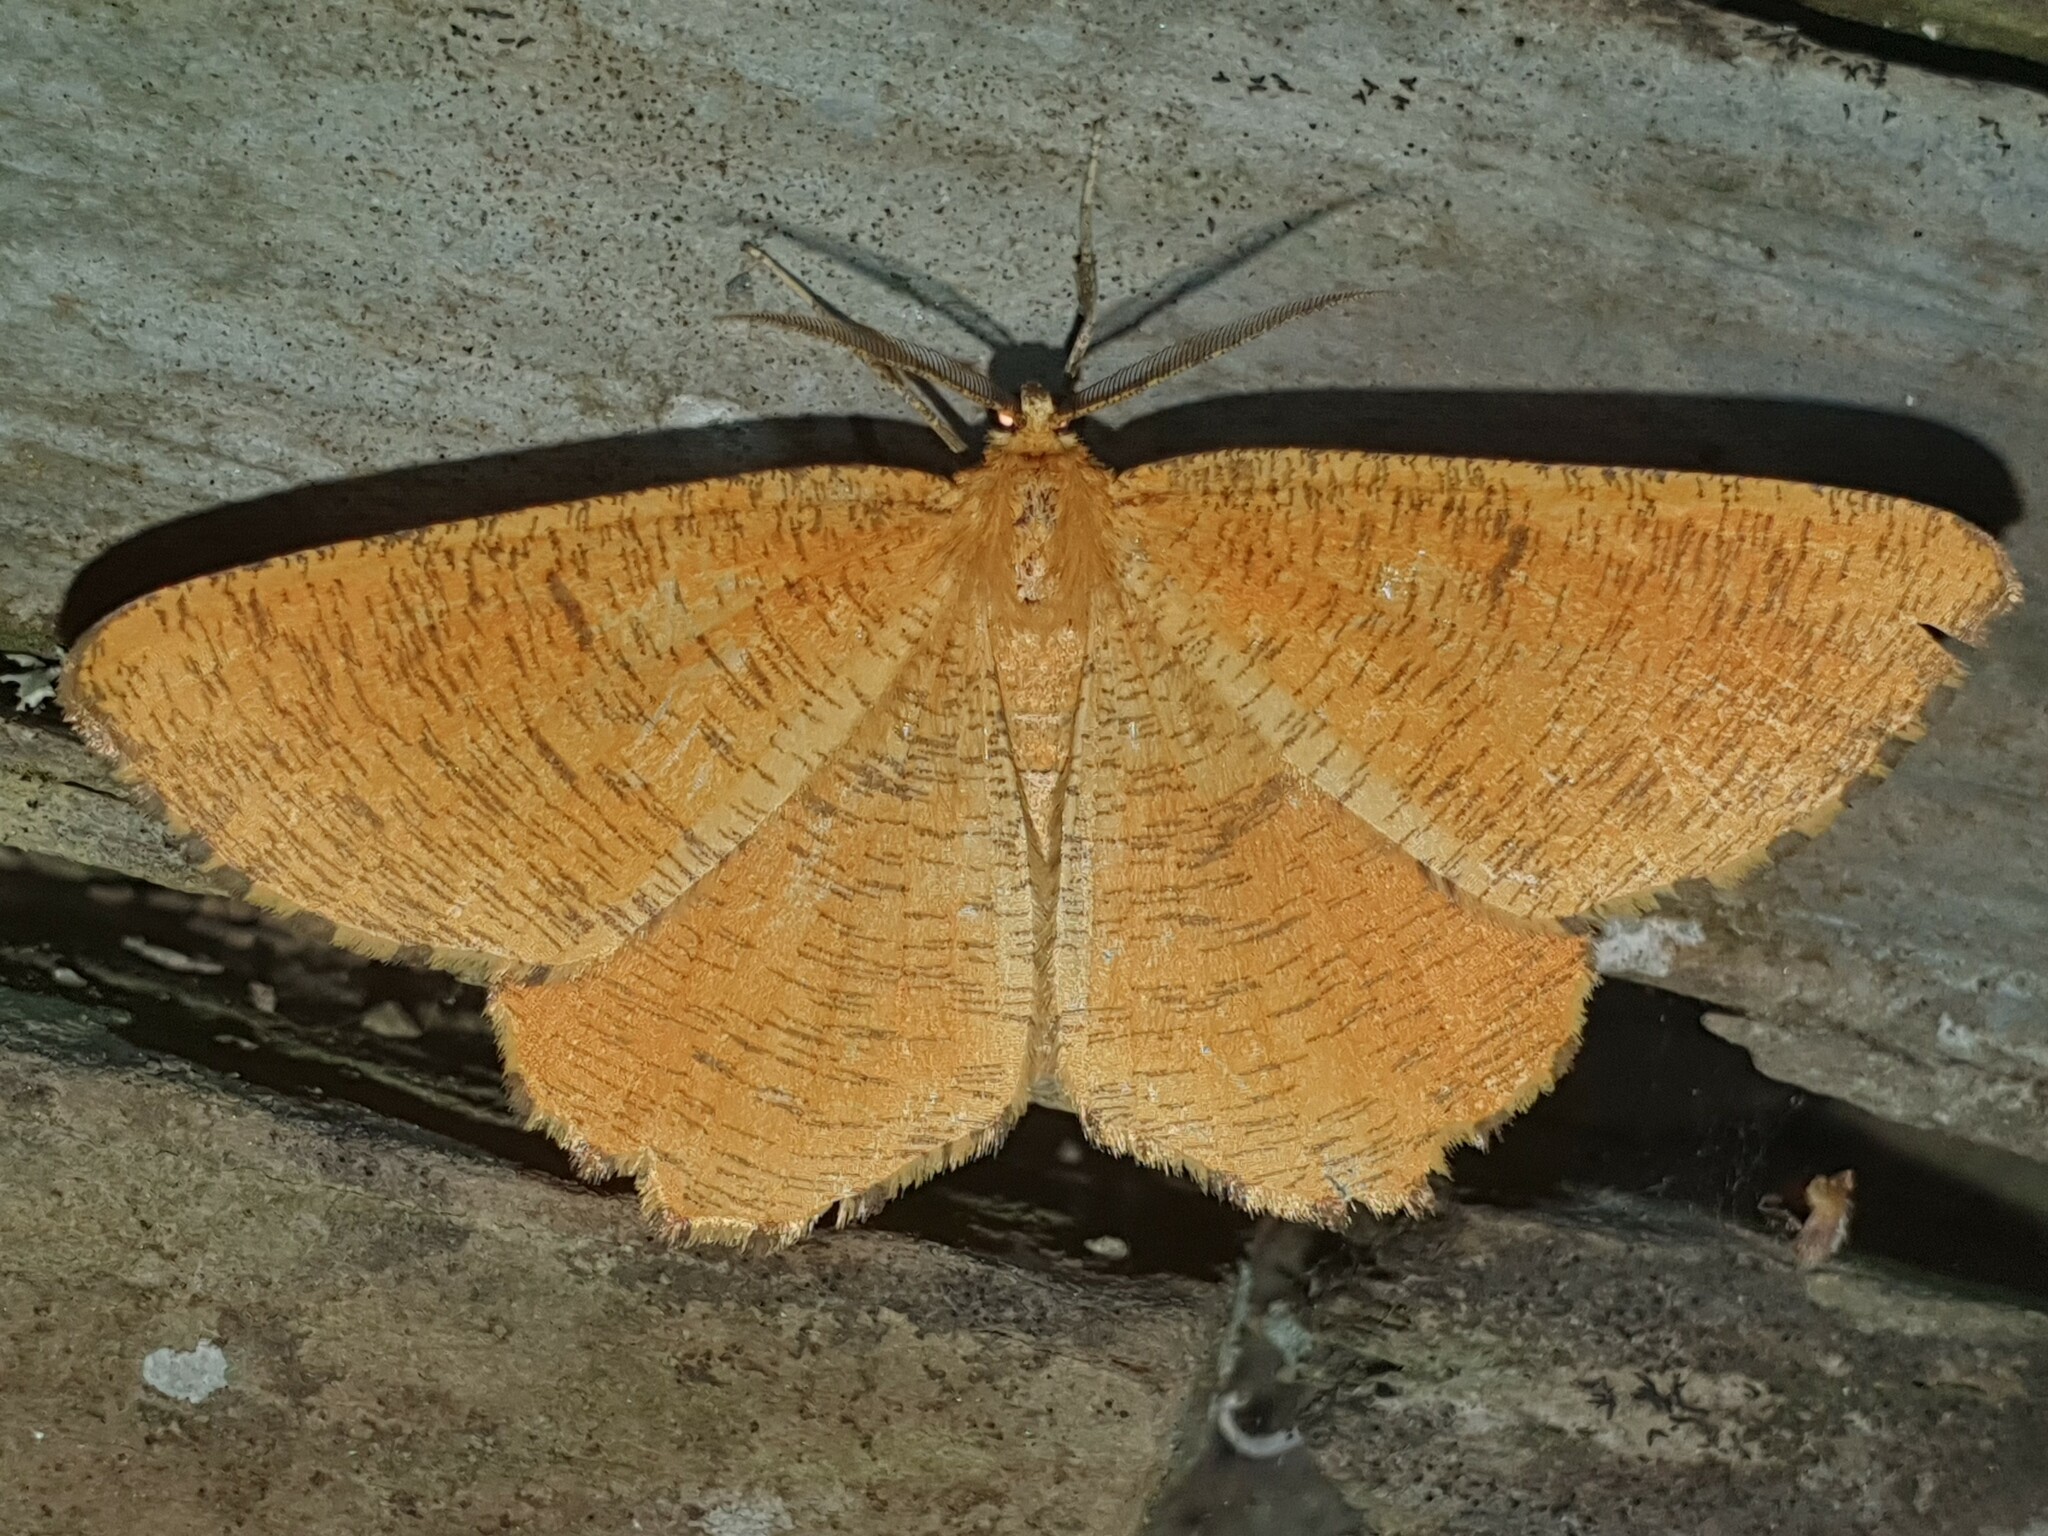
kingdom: Animalia
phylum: Arthropoda
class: Insecta
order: Lepidoptera
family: Geometridae
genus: Angerona
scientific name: Angerona prunaria
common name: Orange moth
